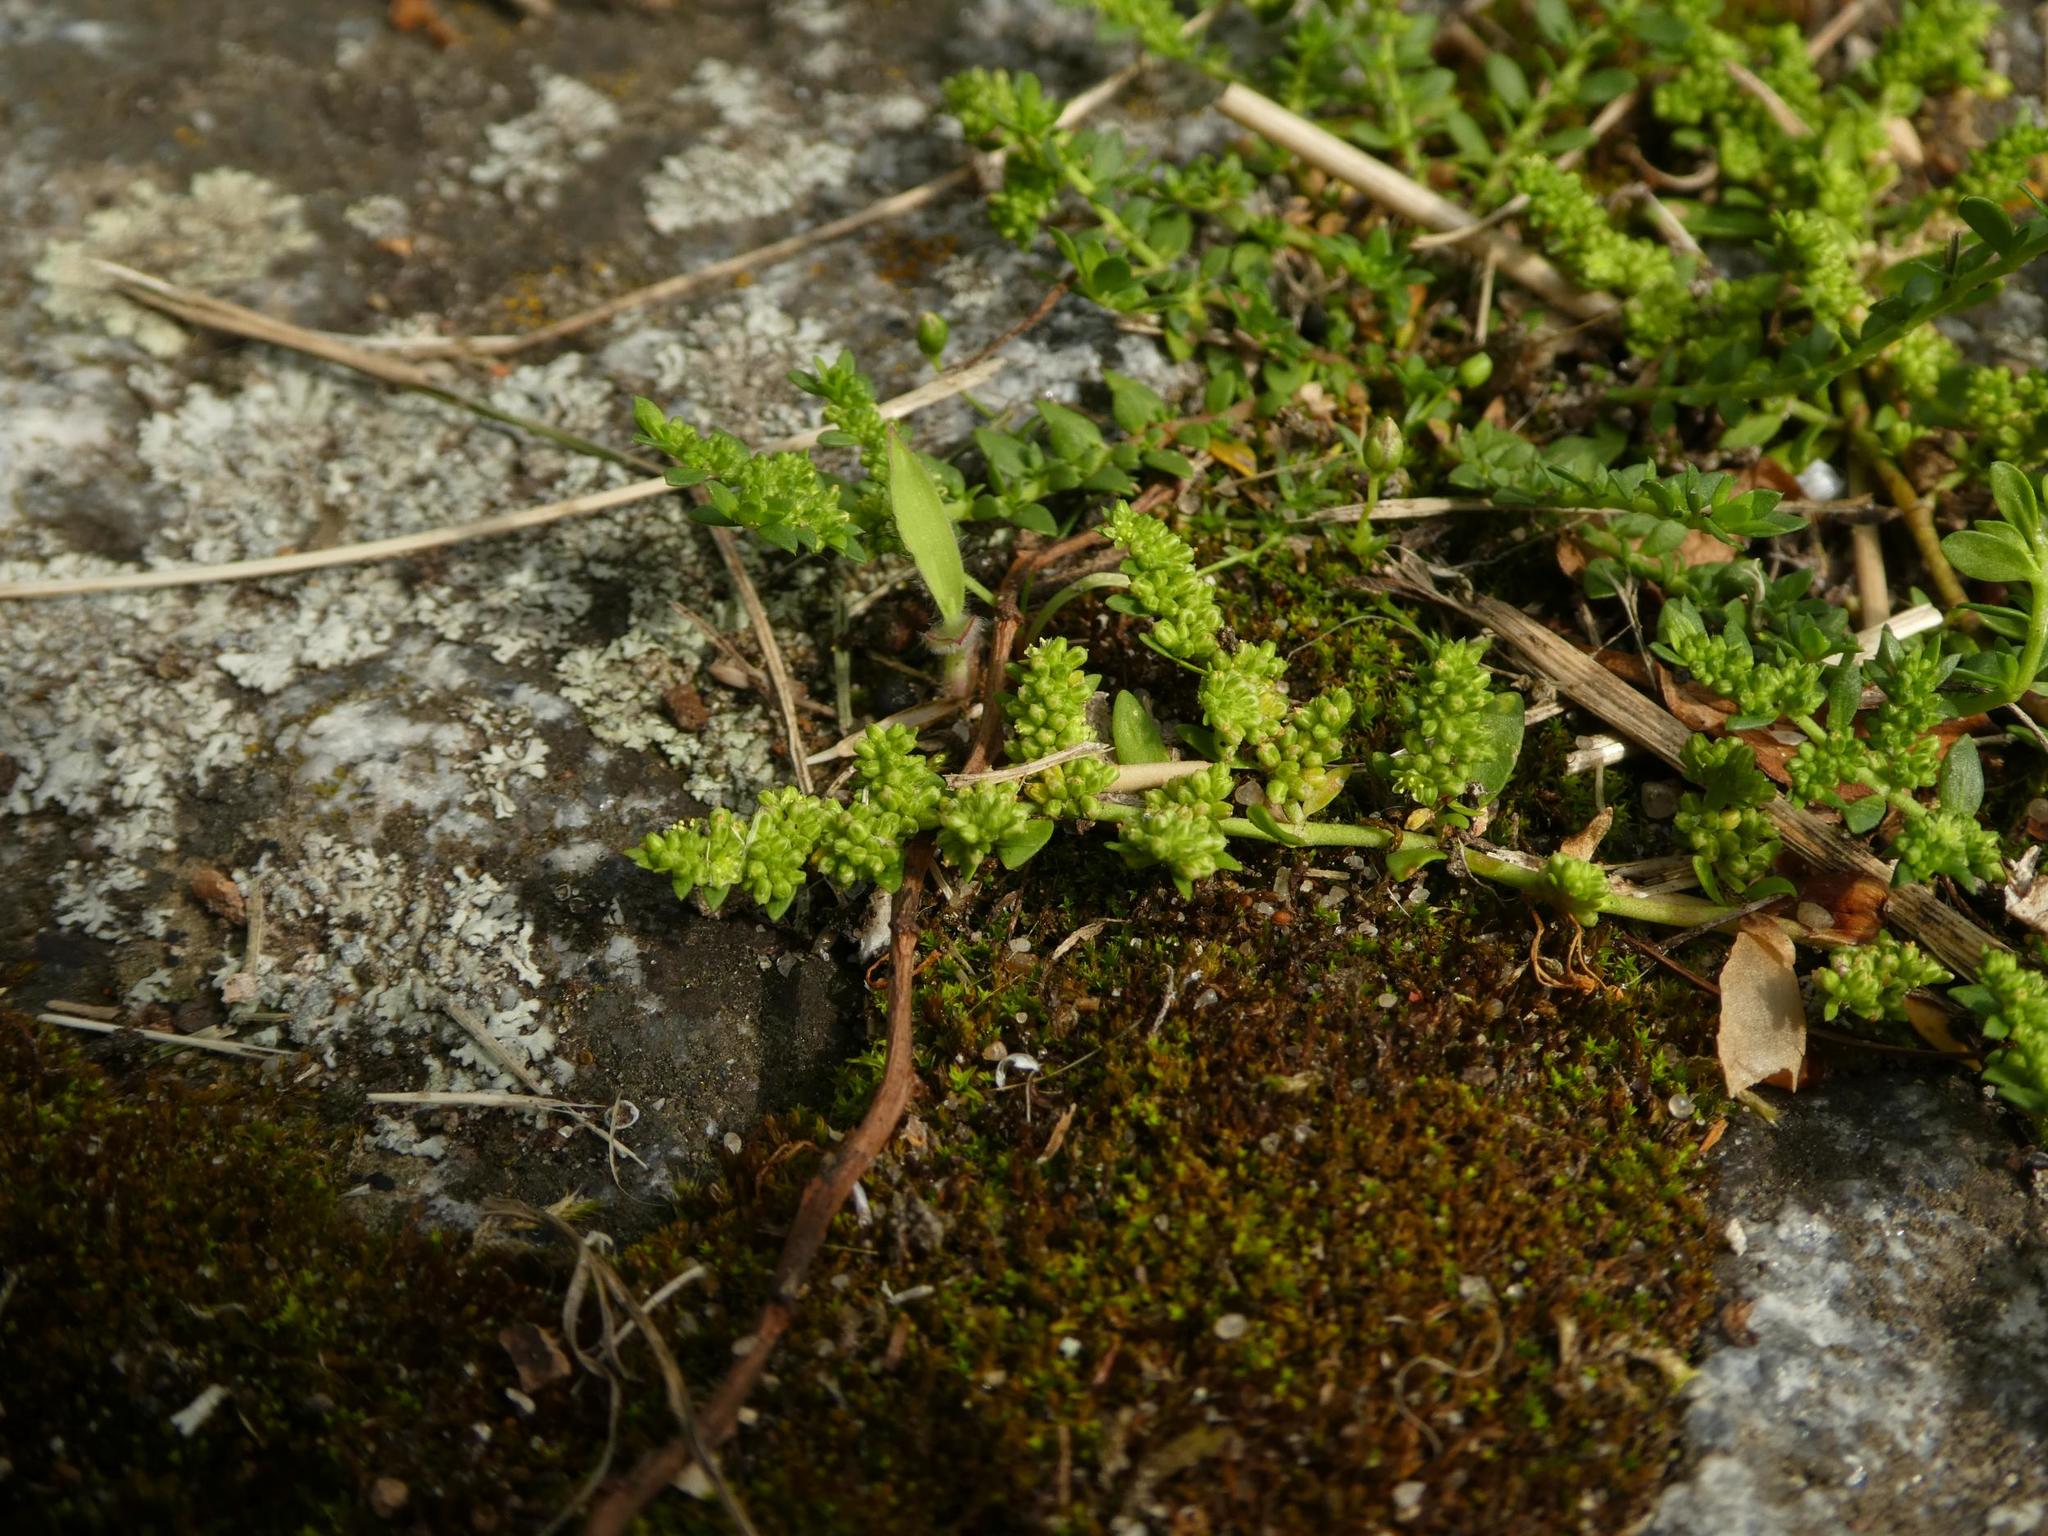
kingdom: Plantae
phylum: Tracheophyta
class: Magnoliopsida
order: Caryophyllales
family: Caryophyllaceae
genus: Herniaria
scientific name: Herniaria glabra
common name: Smooth rupturewort
